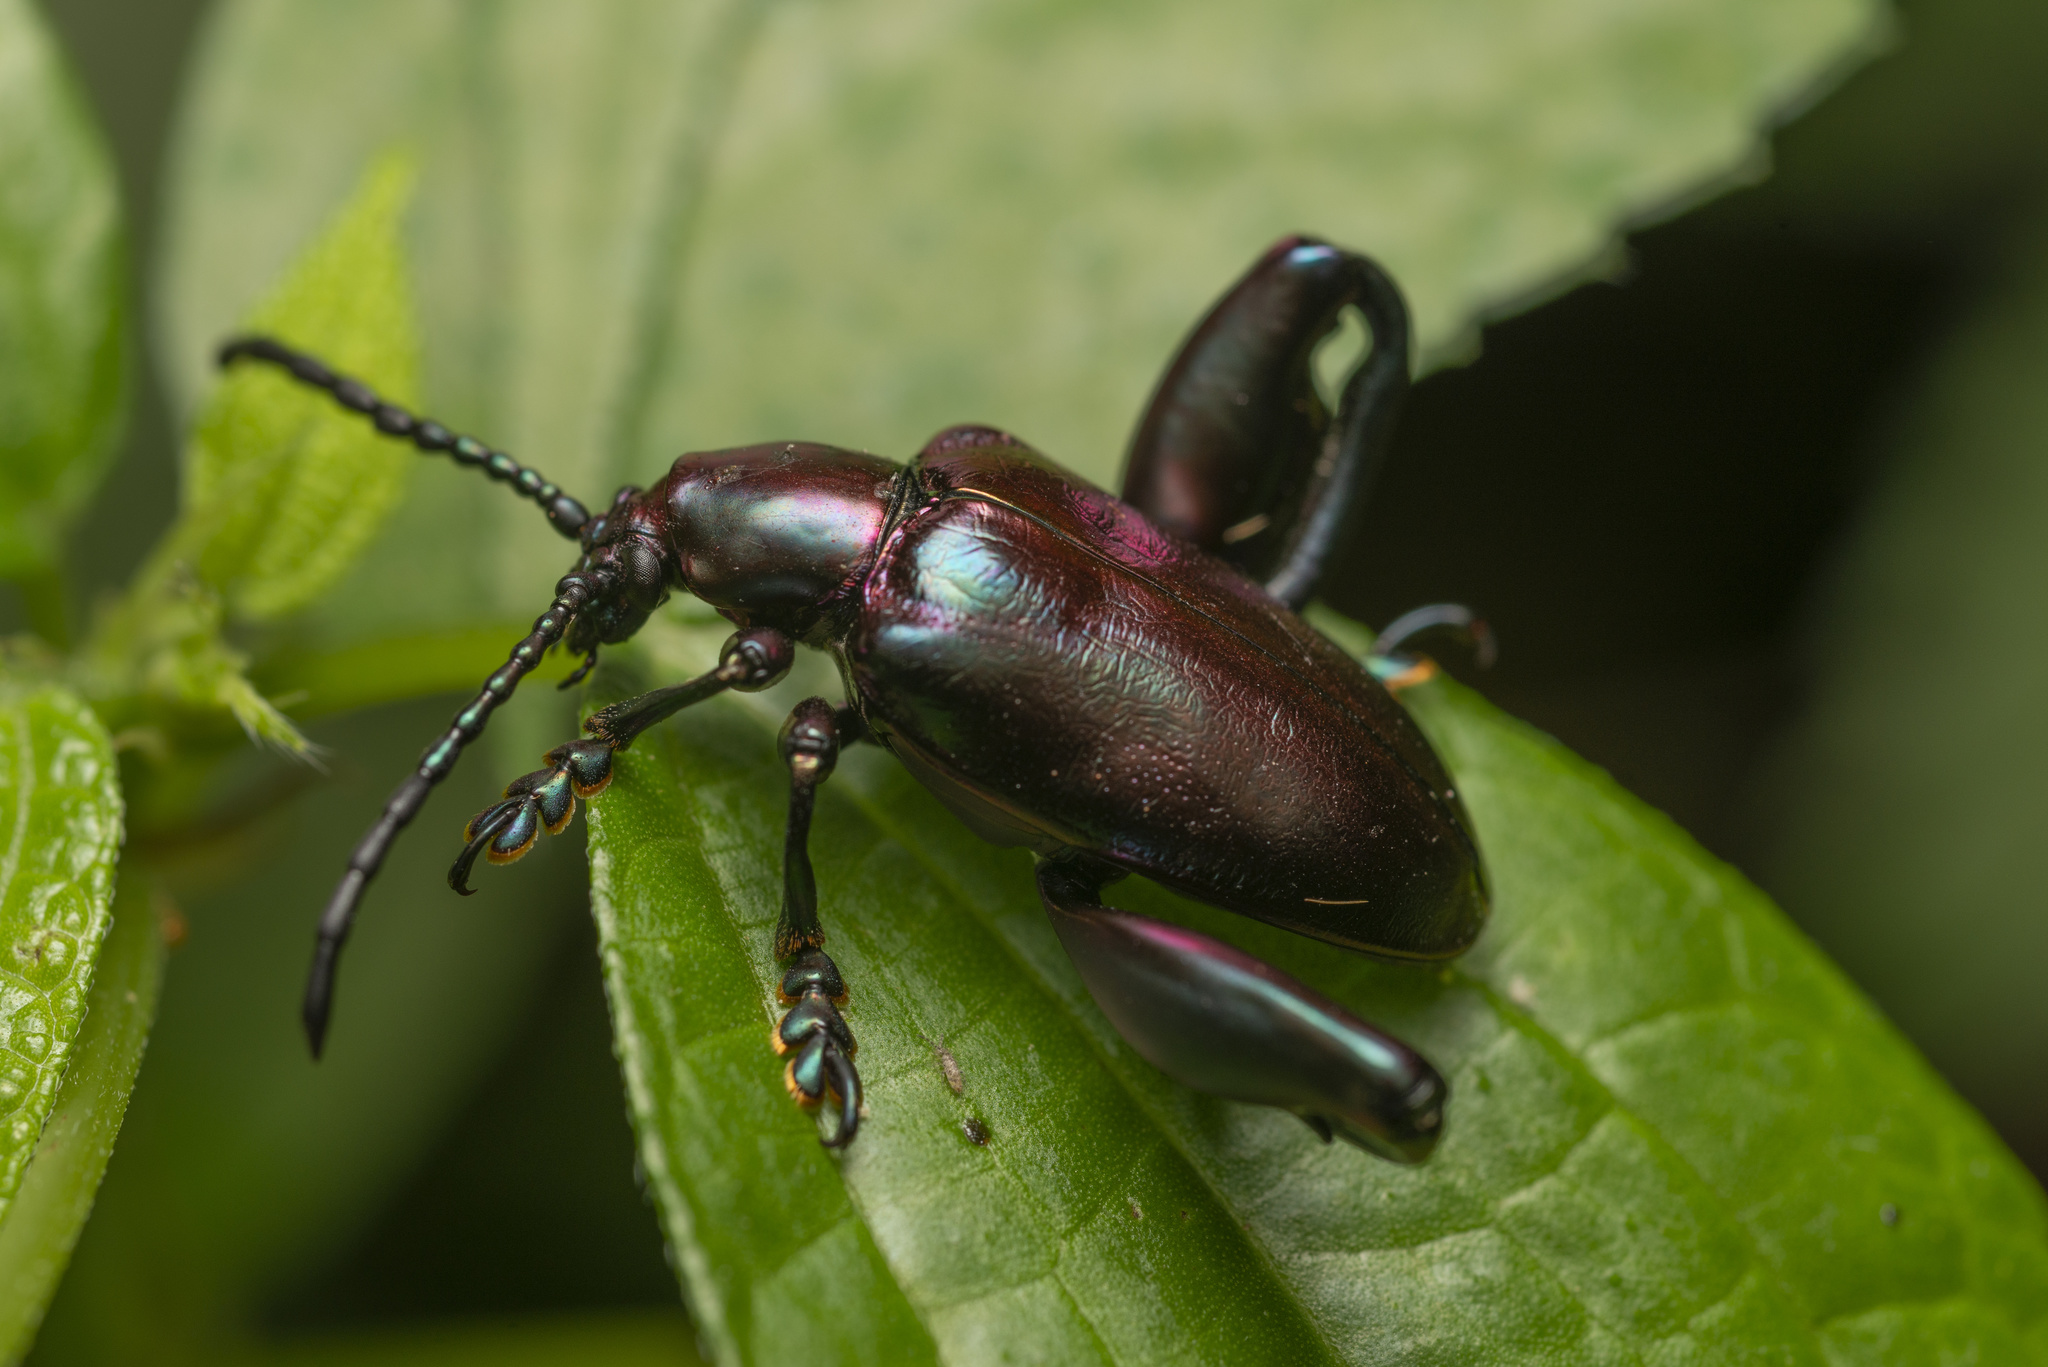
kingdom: Animalia
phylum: Arthropoda
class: Insecta
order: Coleoptera
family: Chrysomelidae
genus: Sagra
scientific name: Sagra femorata
